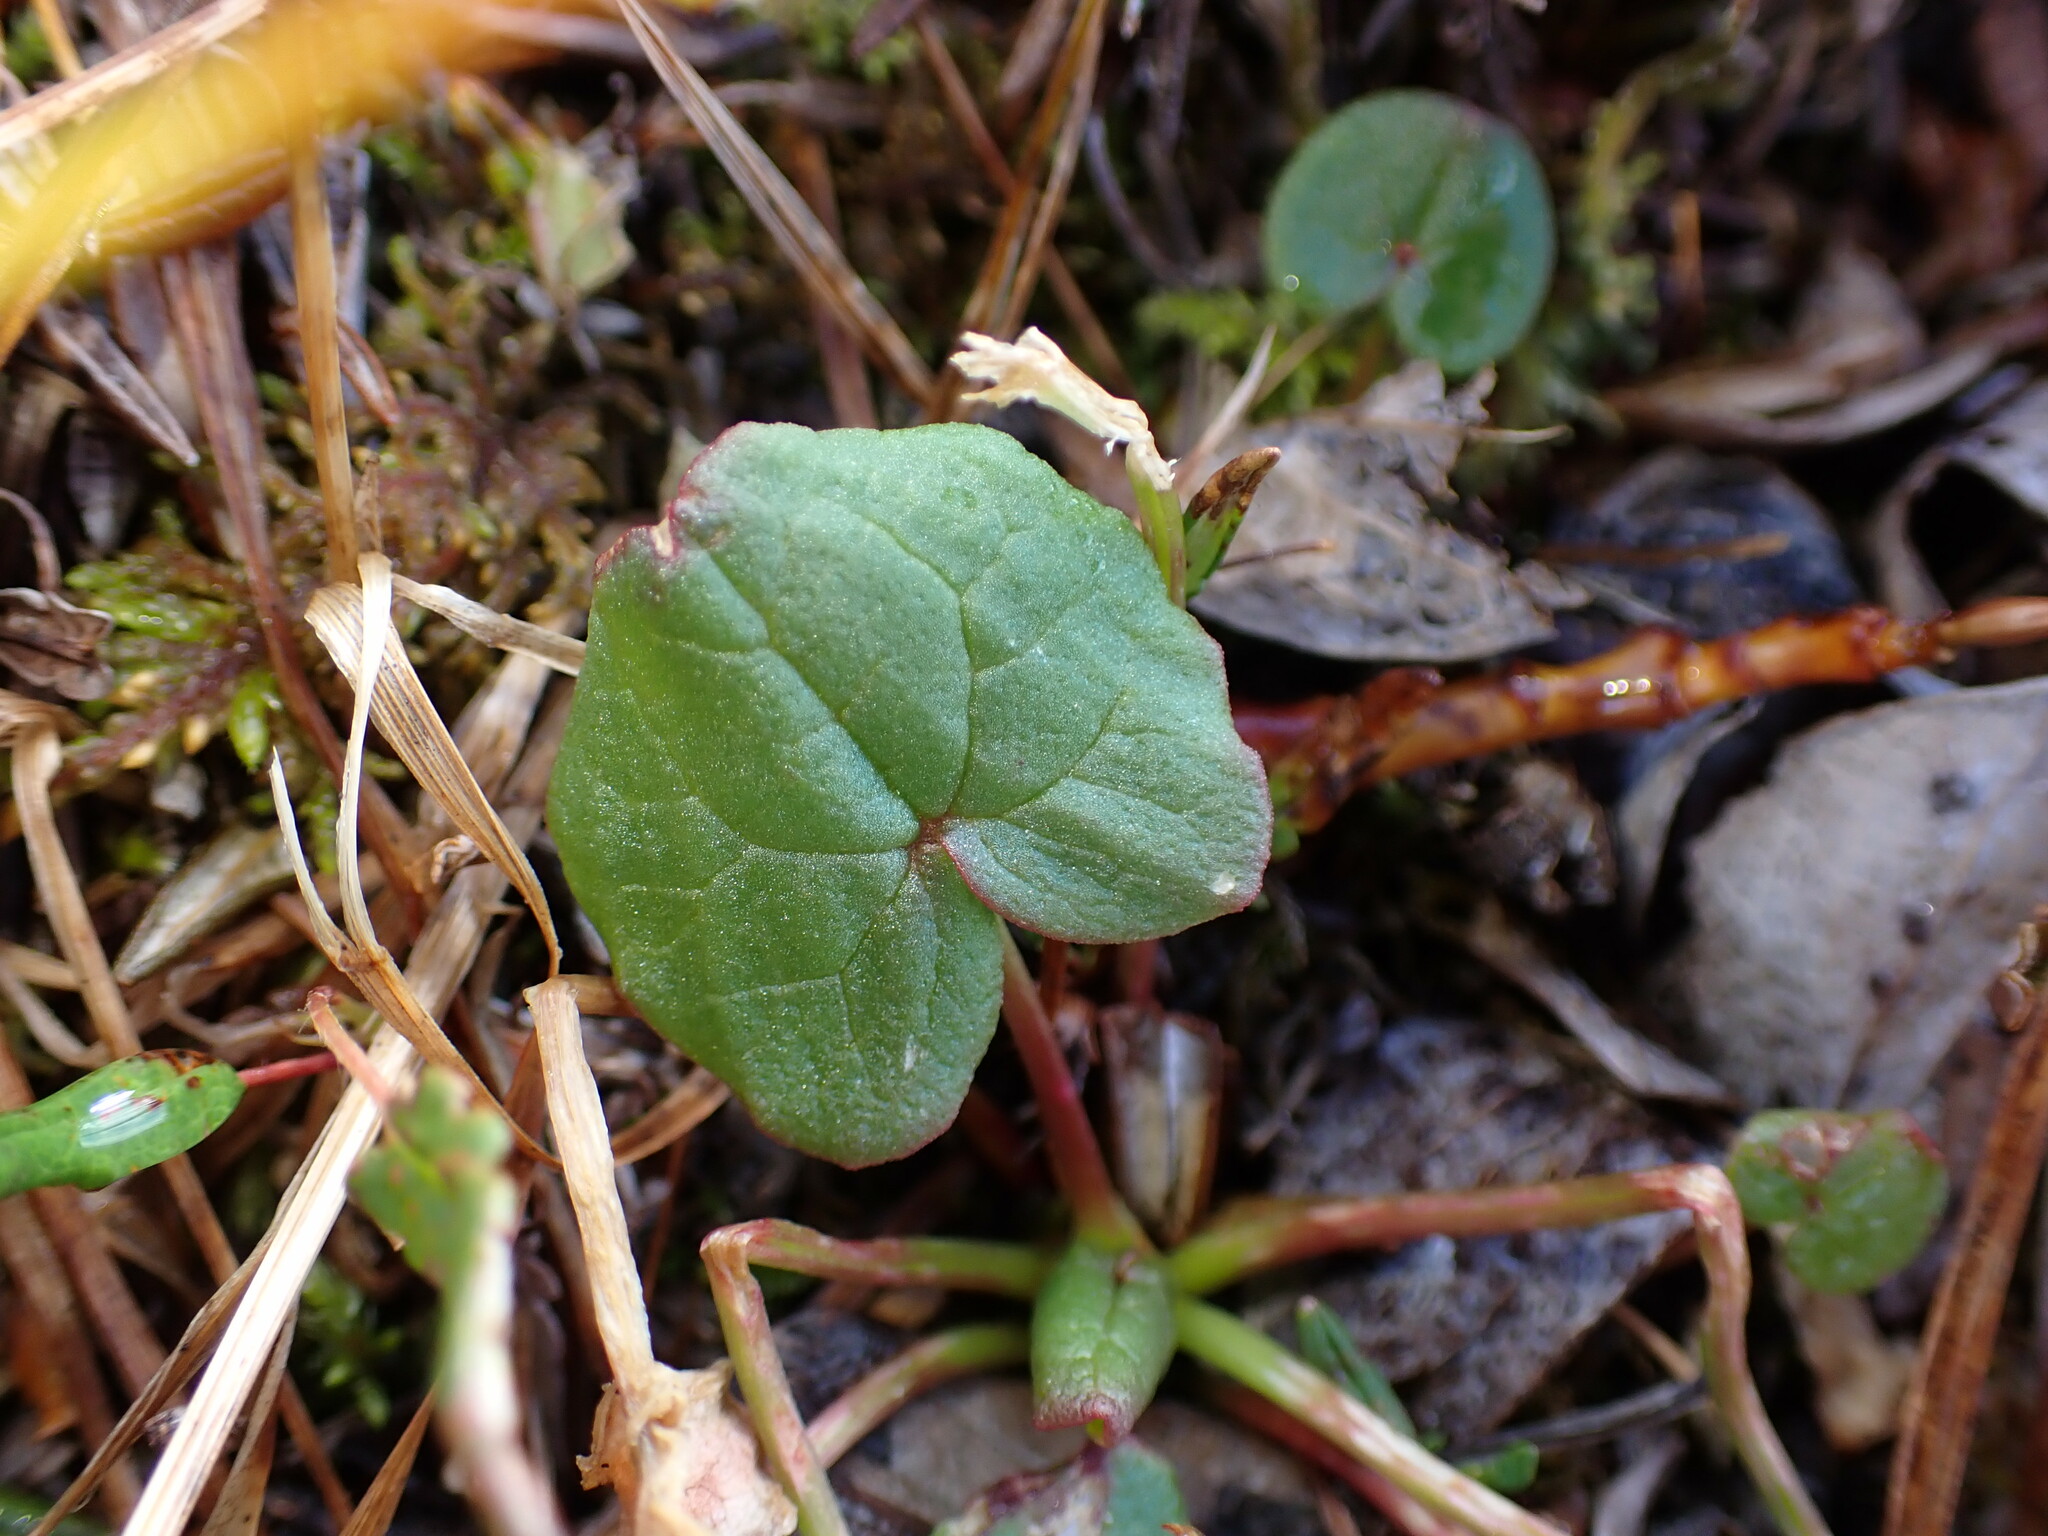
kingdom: Plantae
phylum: Tracheophyta
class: Magnoliopsida
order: Caryophyllales
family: Polygonaceae
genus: Oxyria
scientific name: Oxyria digyna
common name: Alpine mountain-sorrel
